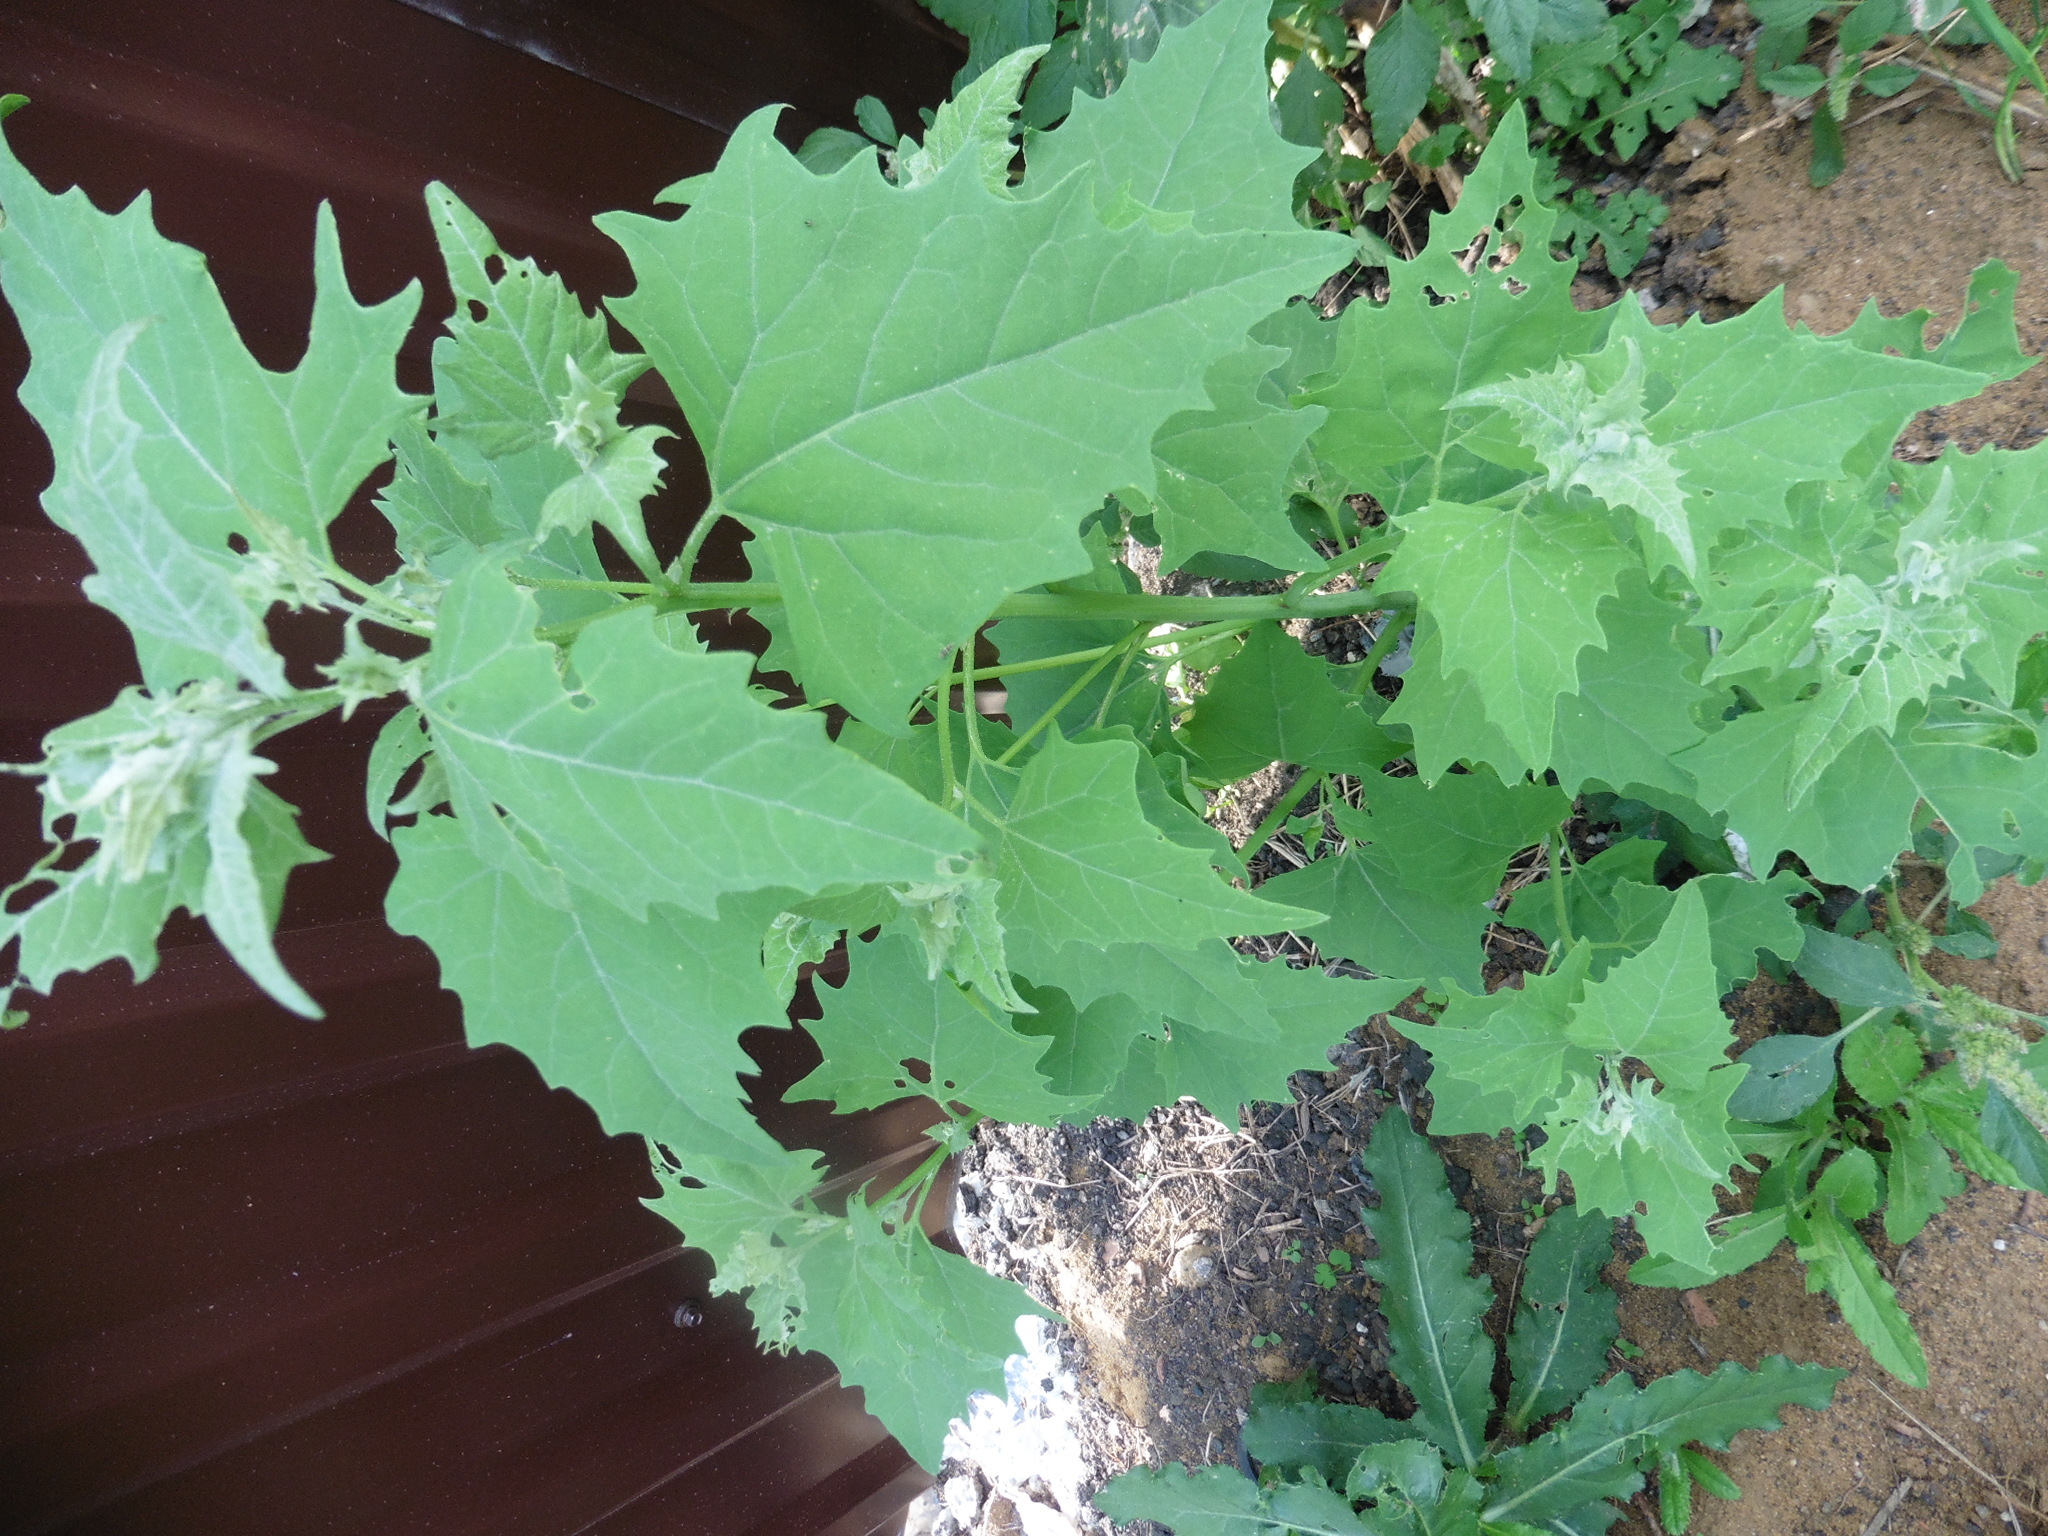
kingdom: Plantae
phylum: Tracheophyta
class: Magnoliopsida
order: Caryophyllales
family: Amaranthaceae
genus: Atriplex
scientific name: Atriplex sagittata
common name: Purple orache
